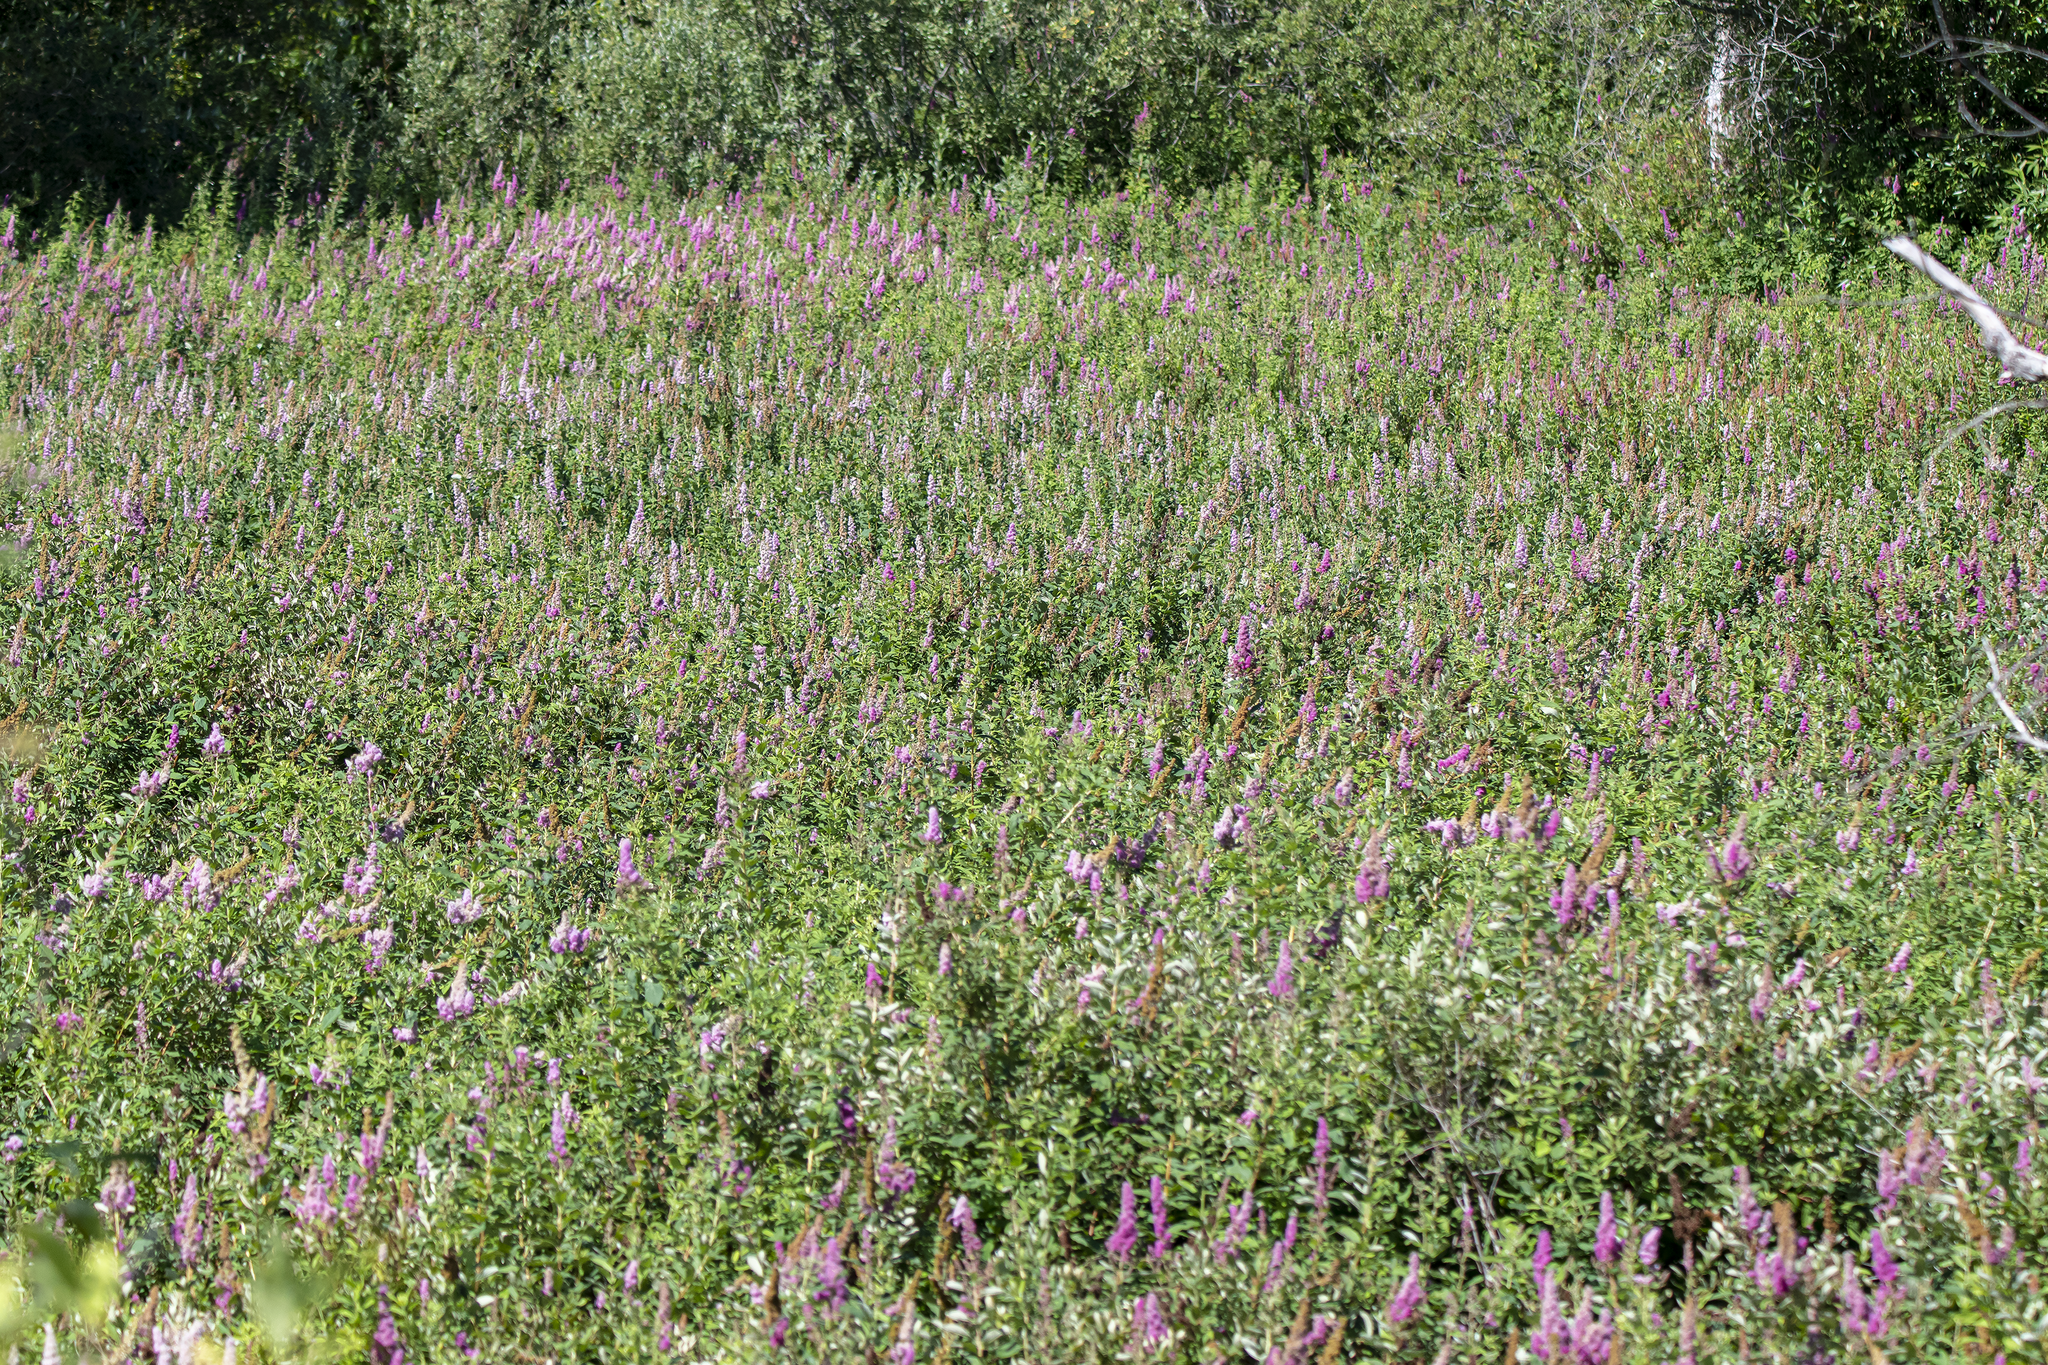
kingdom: Plantae
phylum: Tracheophyta
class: Magnoliopsida
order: Rosales
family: Rosaceae
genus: Spiraea
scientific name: Spiraea douglasii
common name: Steeplebush
